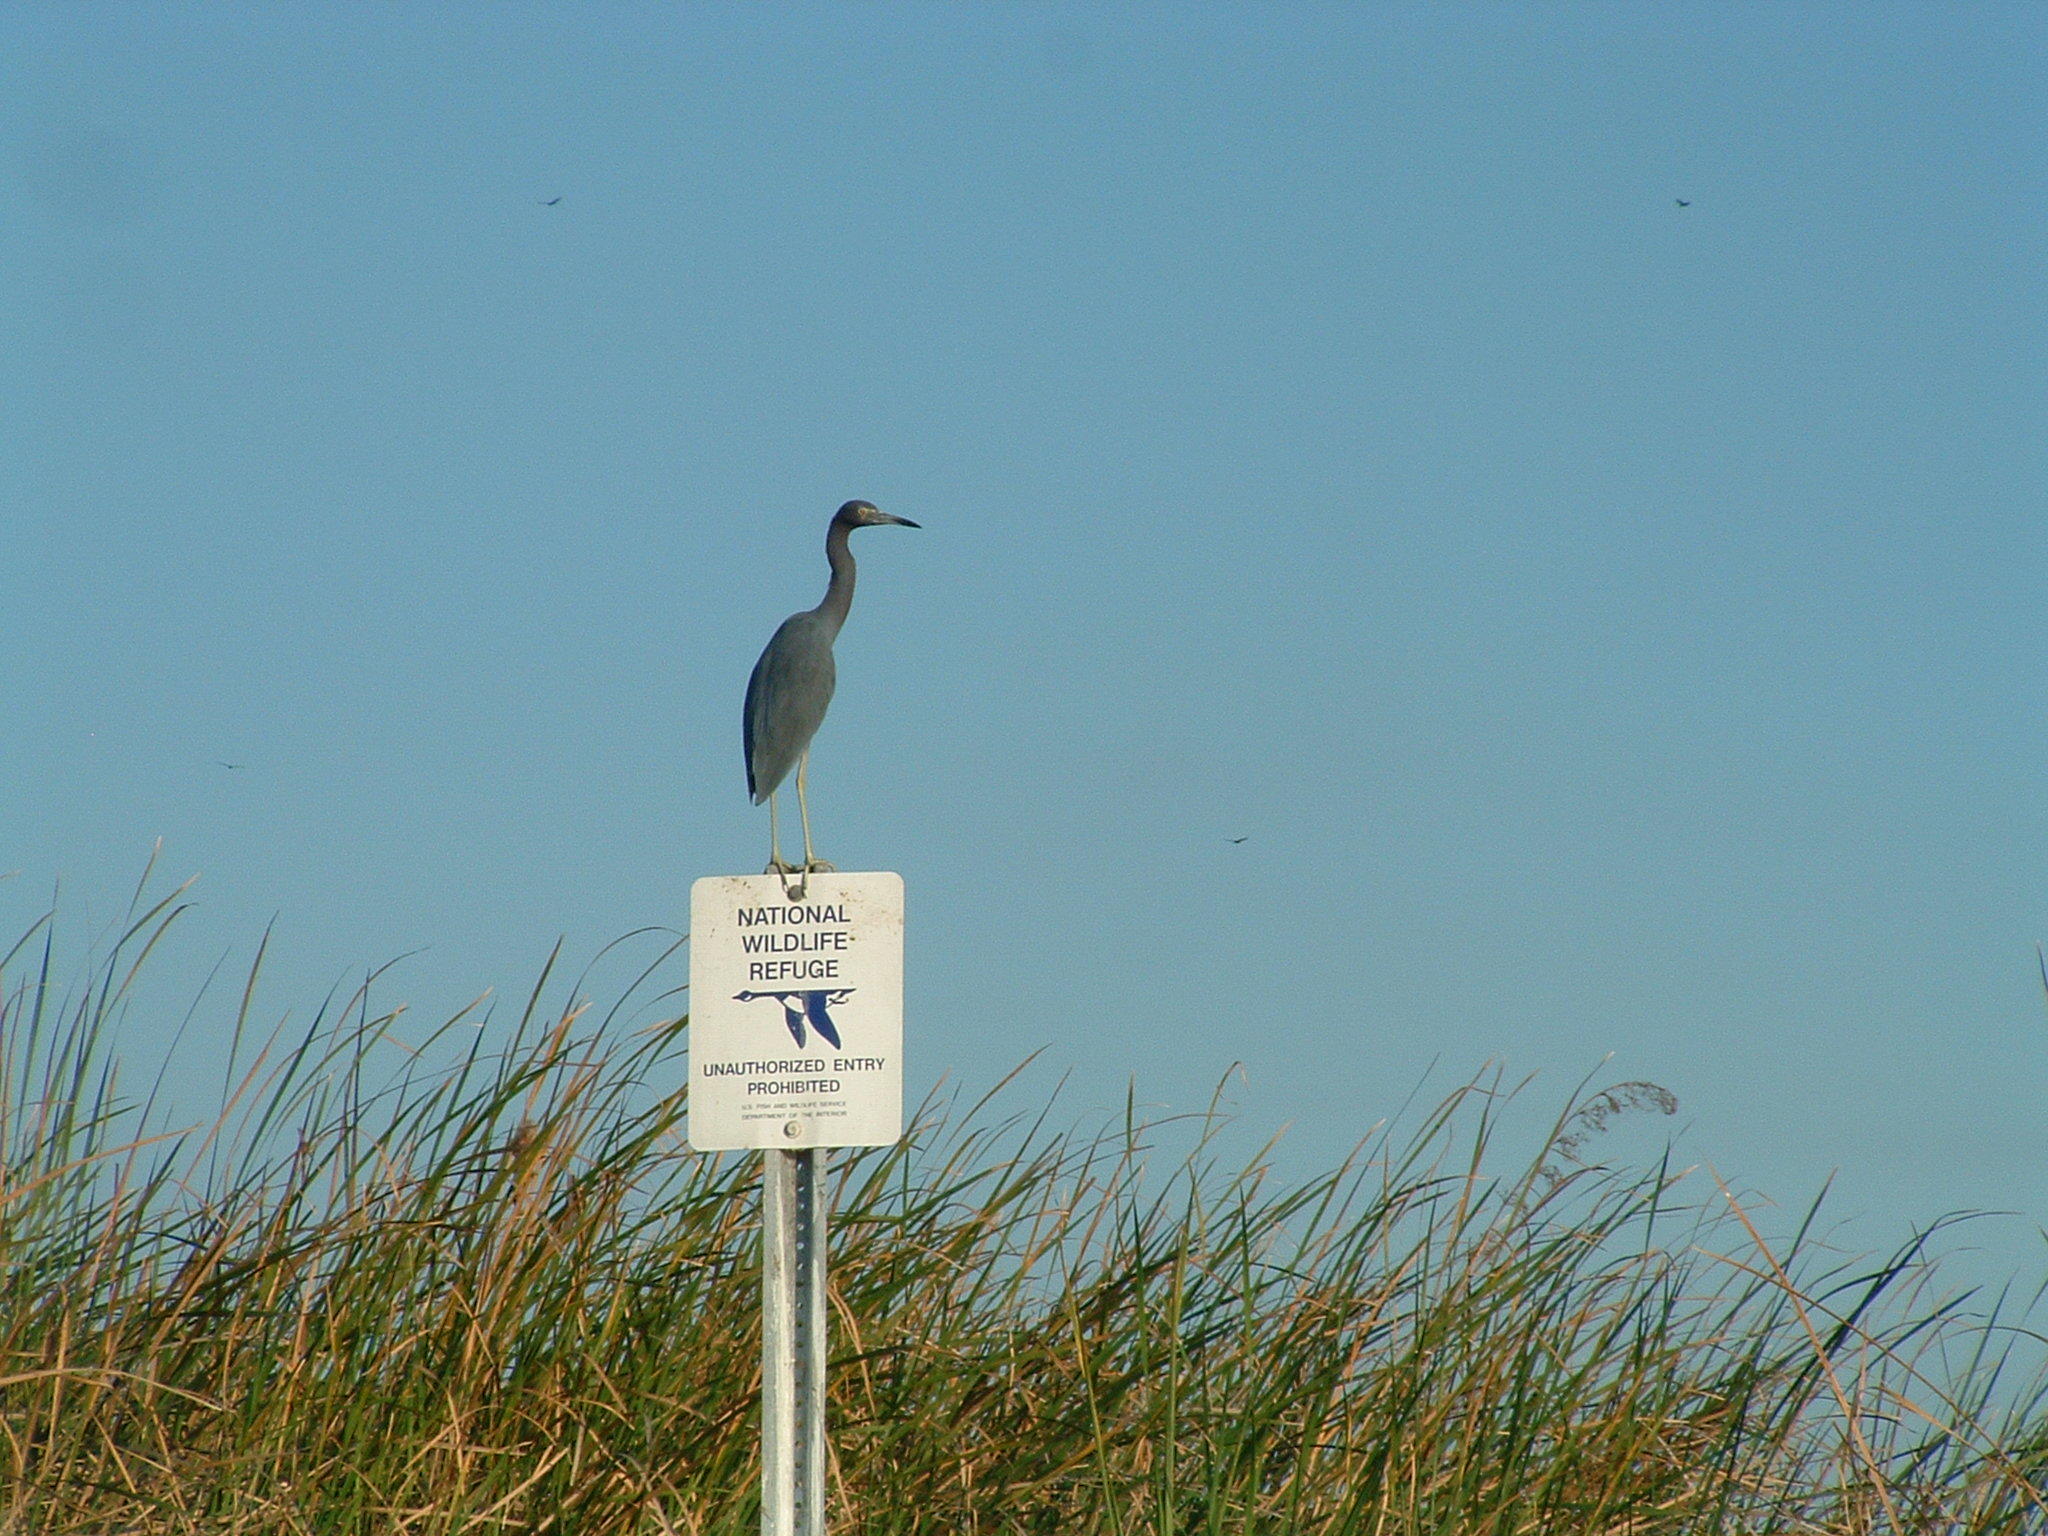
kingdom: Animalia
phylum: Chordata
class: Aves
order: Pelecaniformes
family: Ardeidae
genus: Egretta
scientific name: Egretta caerulea
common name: Little blue heron
